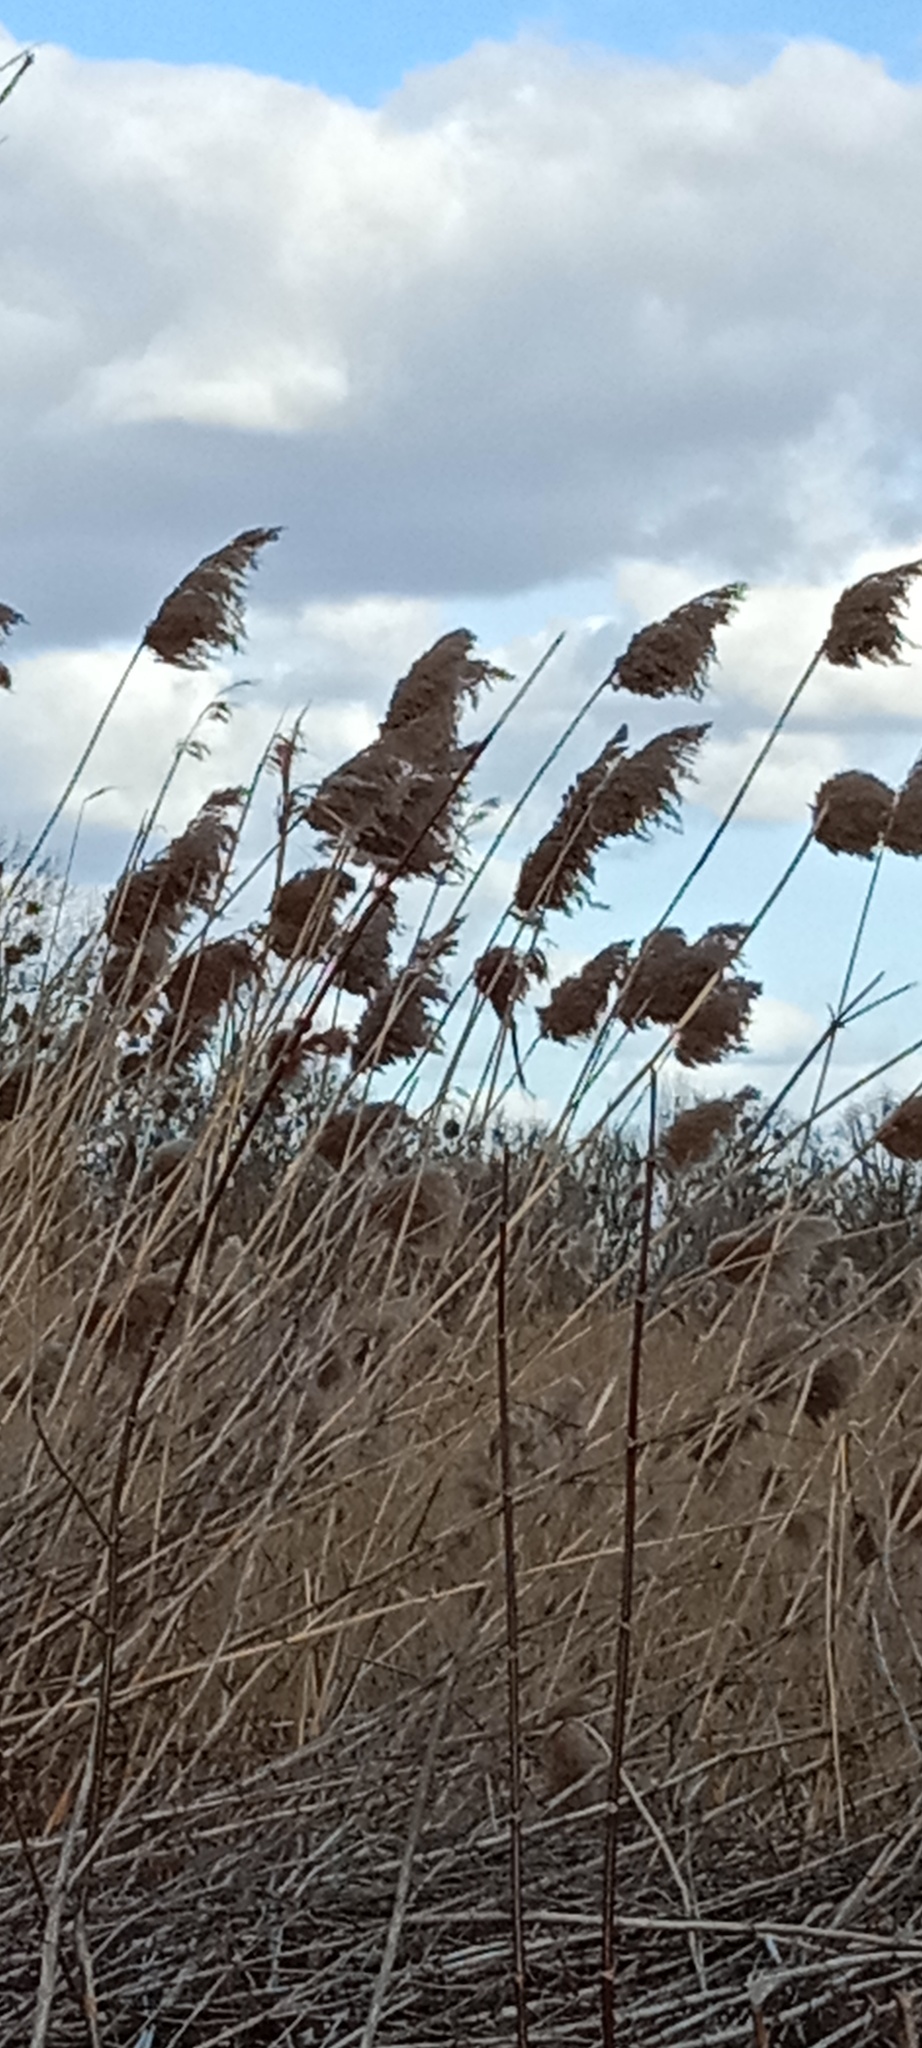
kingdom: Plantae
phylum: Tracheophyta
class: Liliopsida
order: Poales
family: Poaceae
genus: Phragmites
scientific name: Phragmites australis
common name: Common reed
